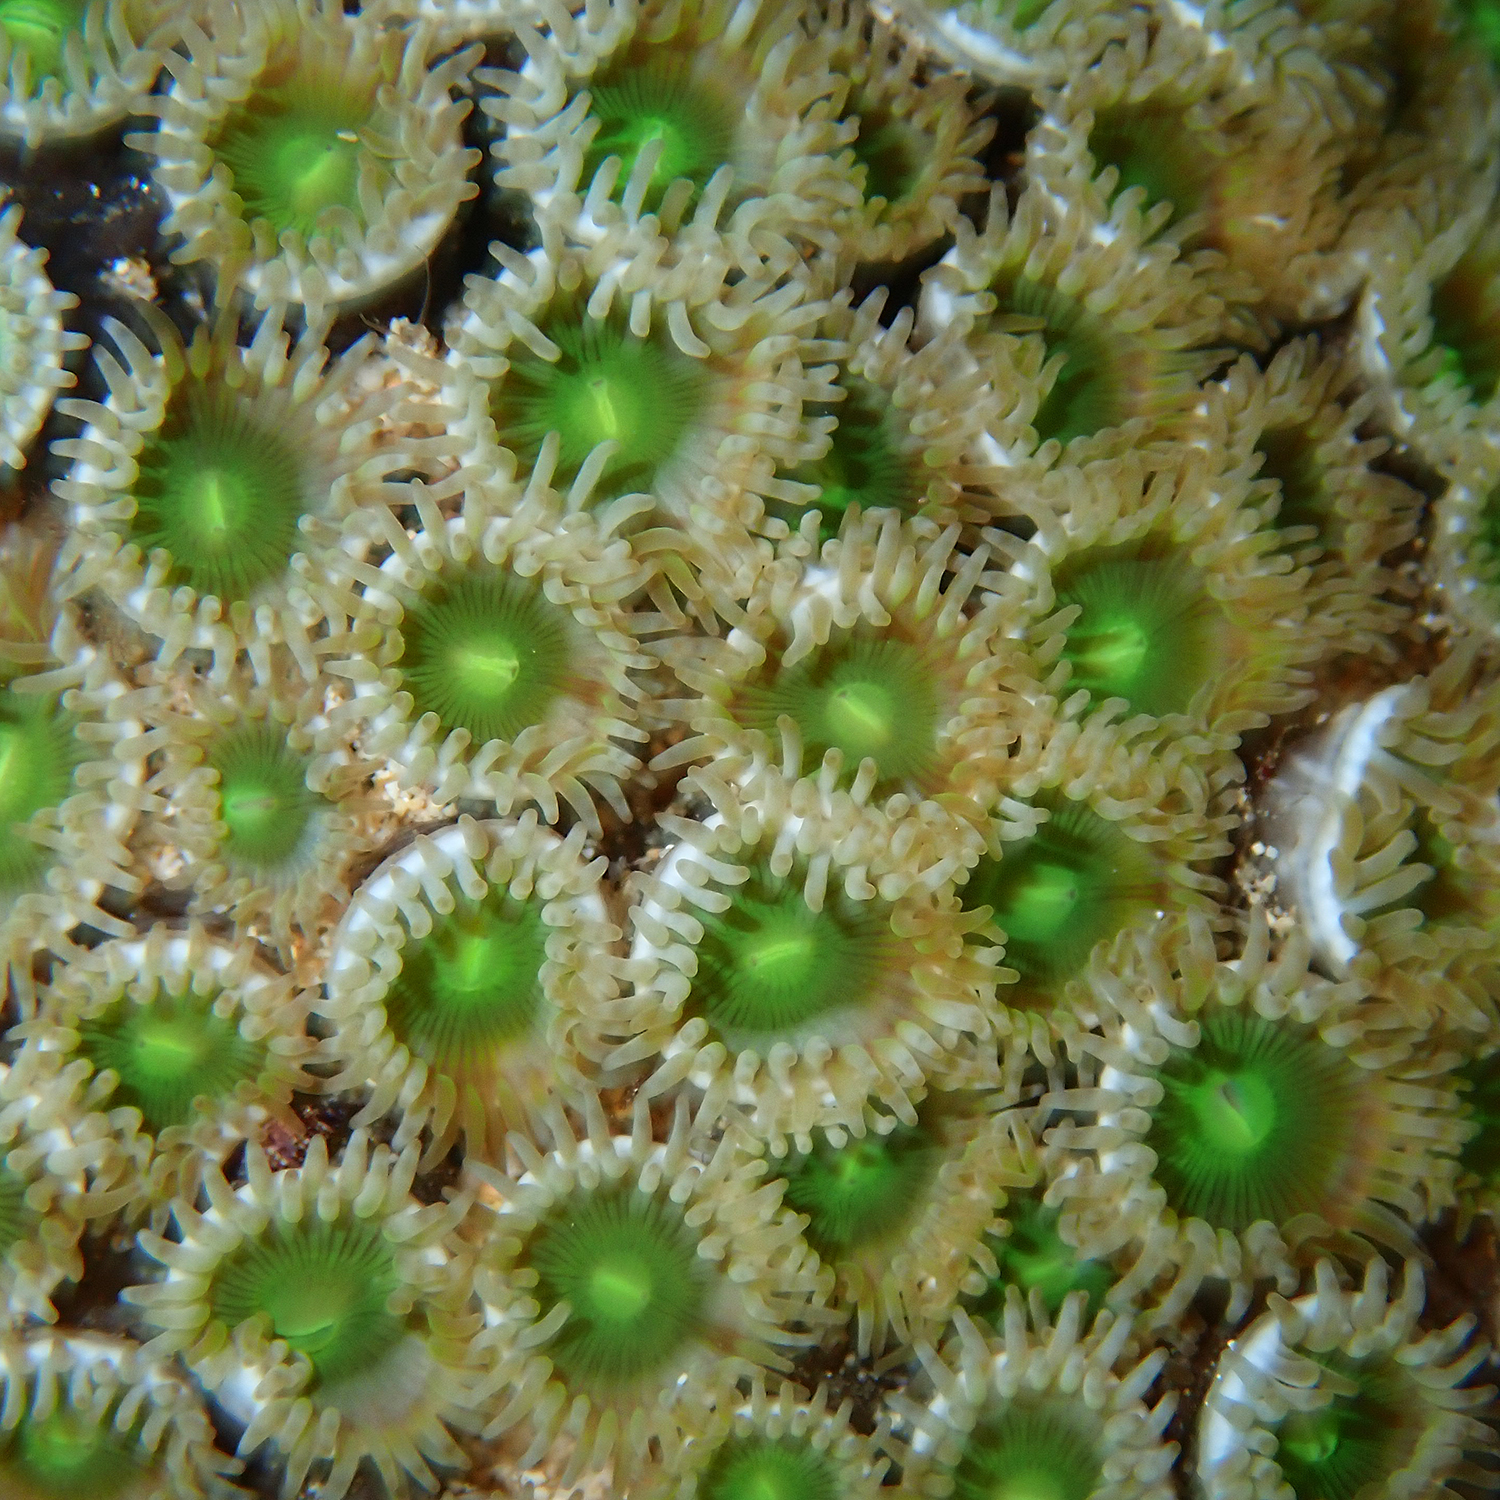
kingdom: Animalia
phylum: Cnidaria
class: Anthozoa
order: Zoantharia
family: Zoanthidae
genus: Zoanthus
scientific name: Zoanthus gigantus
